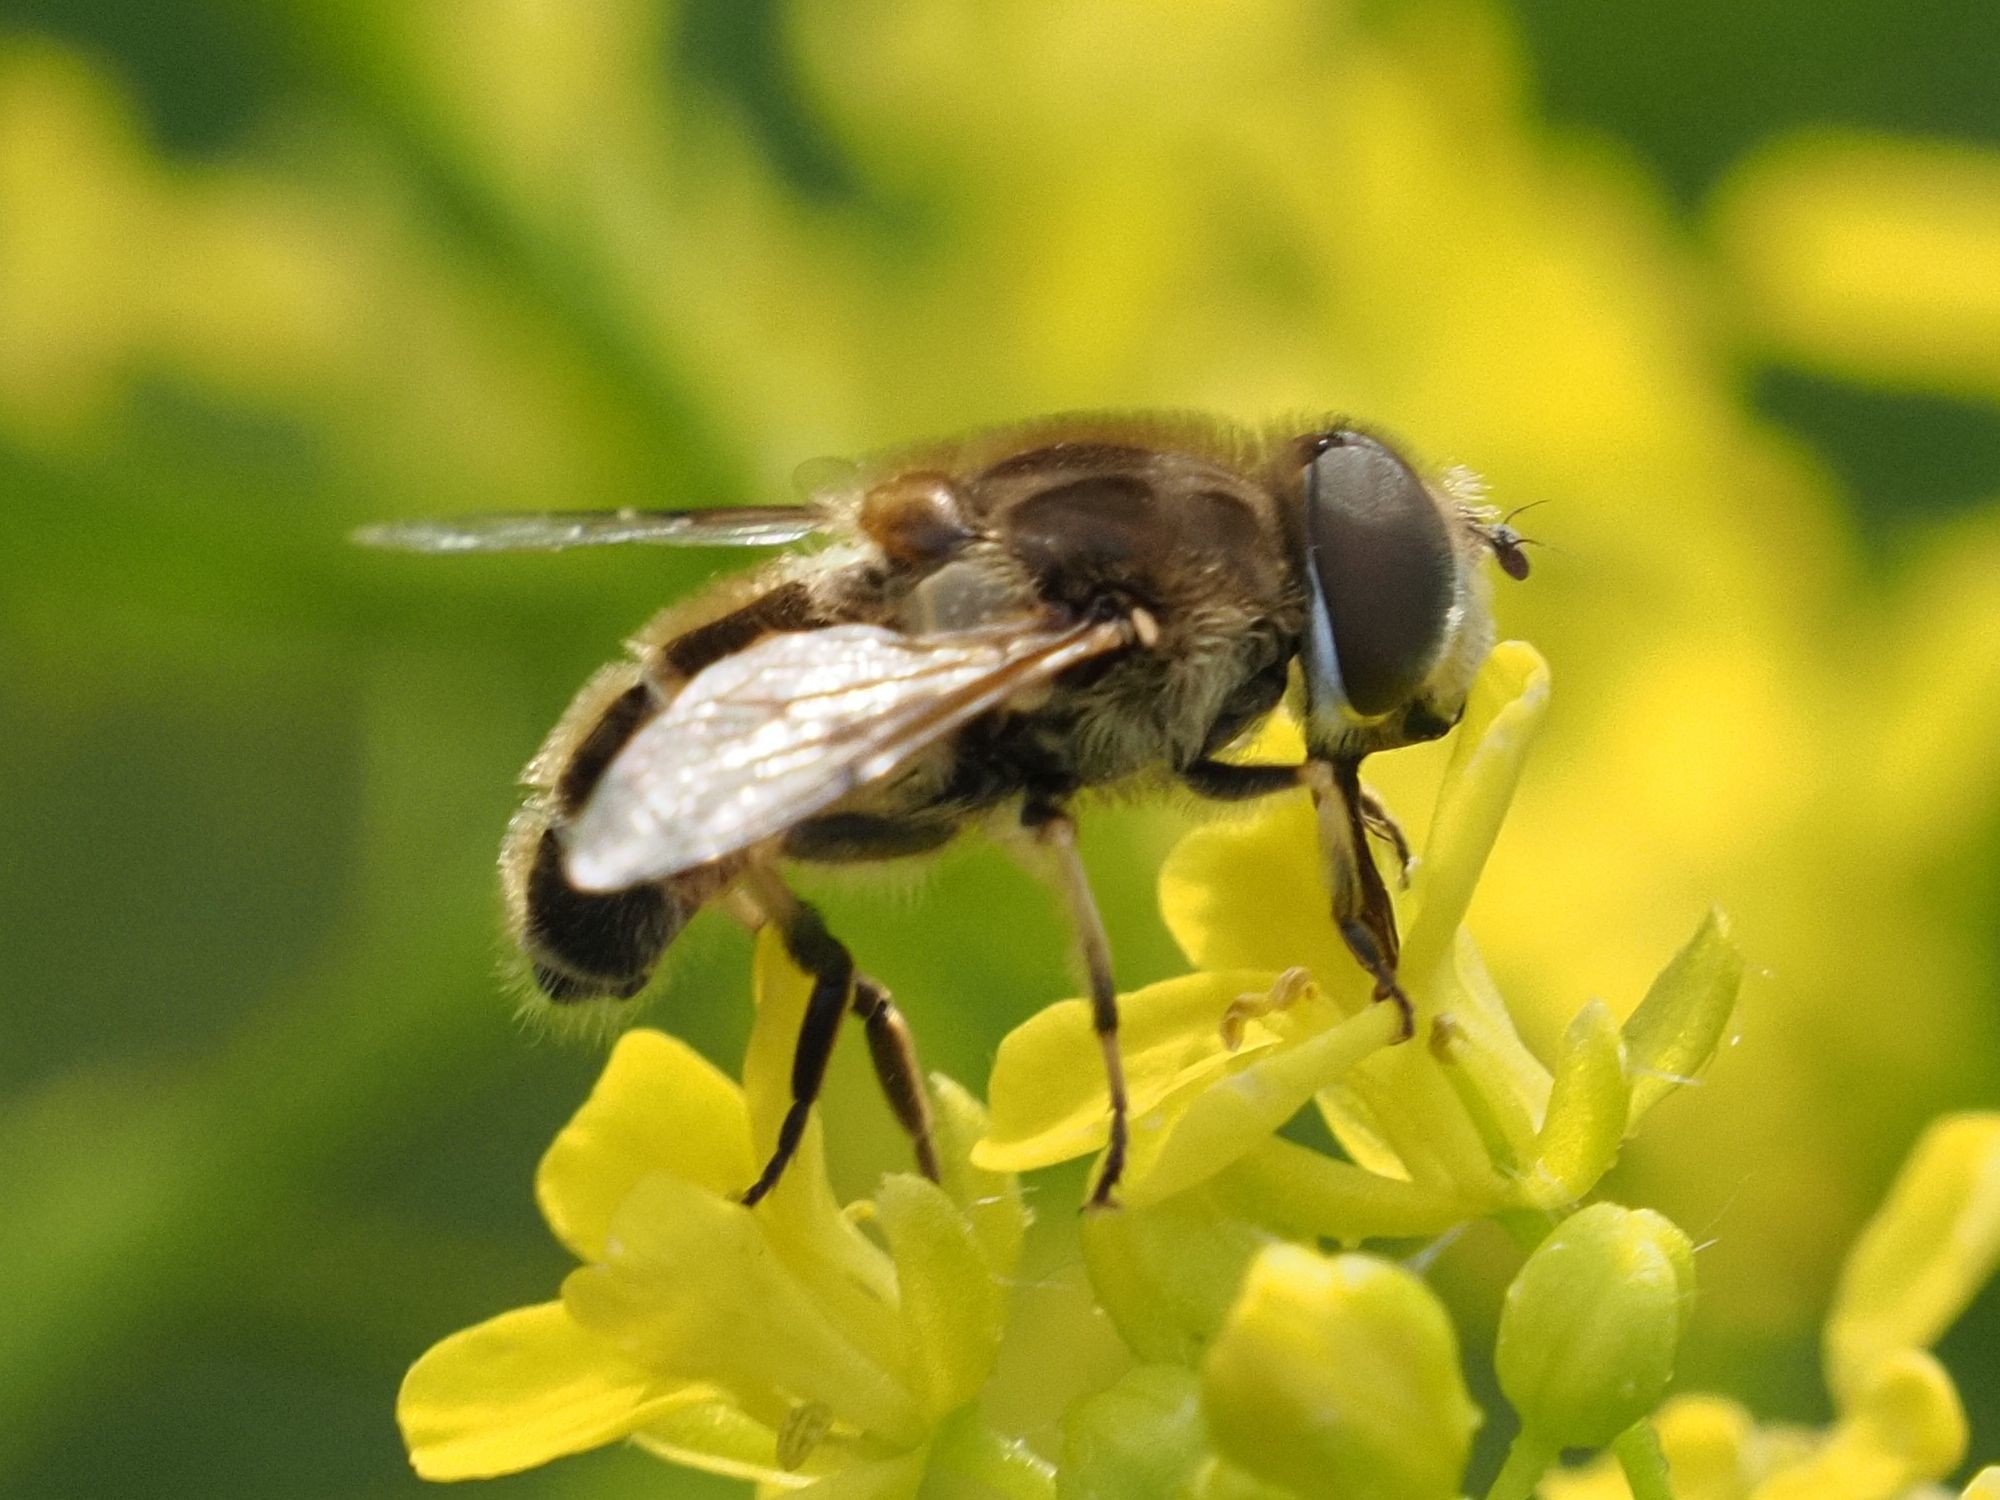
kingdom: Animalia
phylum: Arthropoda
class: Insecta
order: Diptera
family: Syrphidae
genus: Eristalis
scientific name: Eristalis arbustorum
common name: Hover fly
